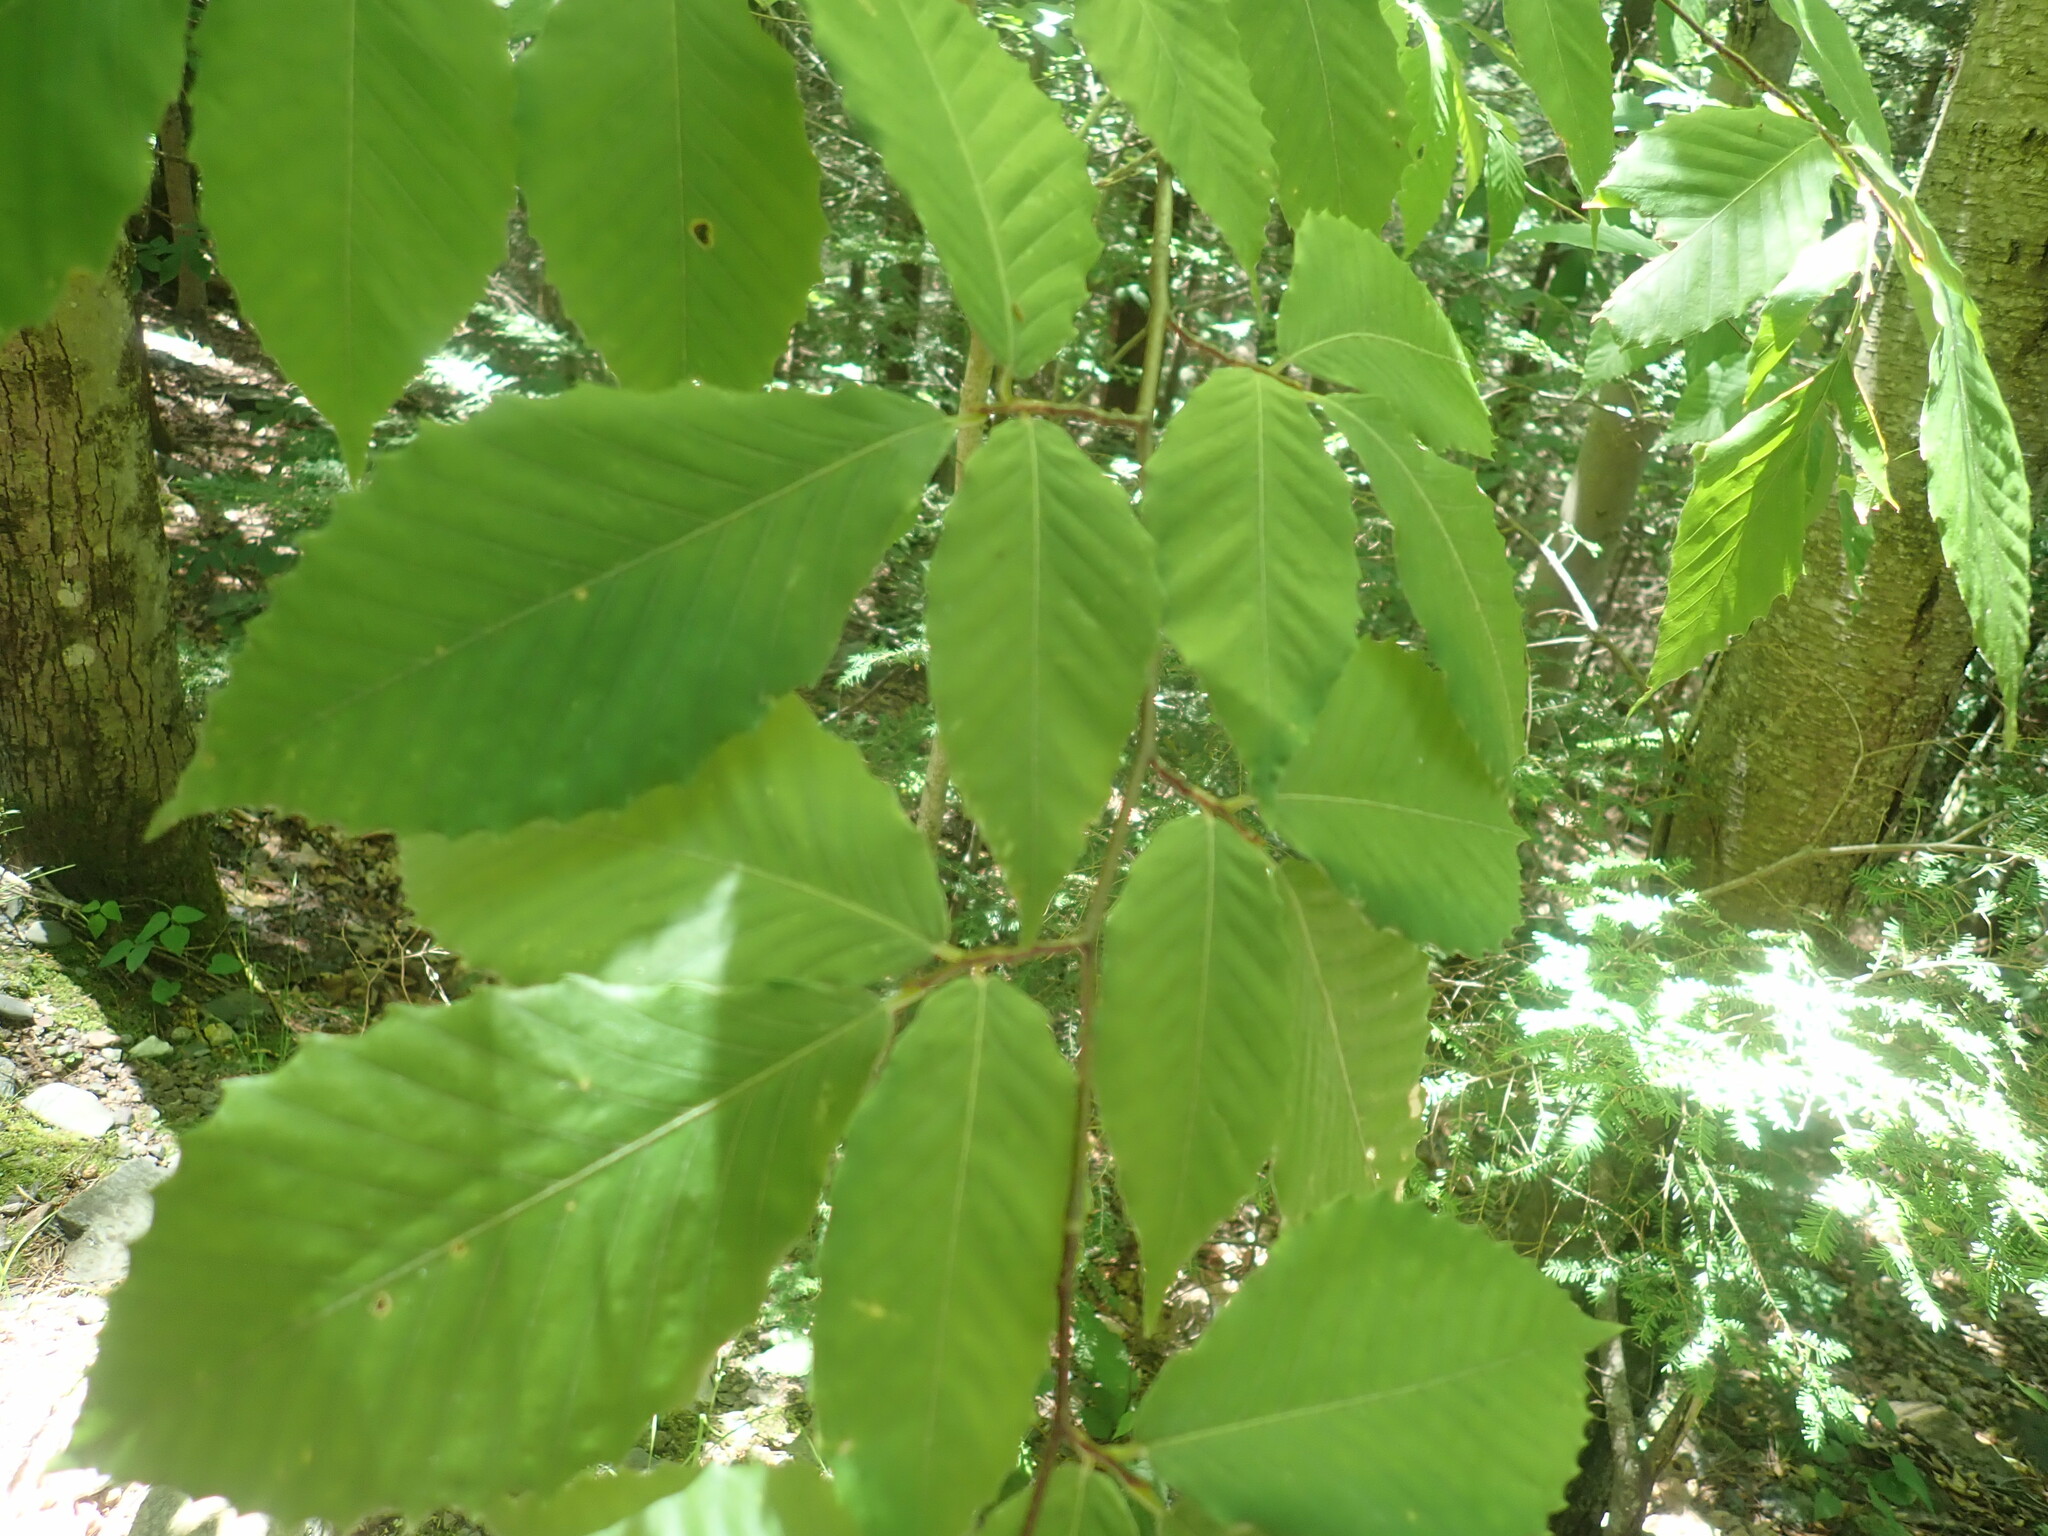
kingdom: Plantae
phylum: Tracheophyta
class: Magnoliopsida
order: Fagales
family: Fagaceae
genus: Fagus
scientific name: Fagus grandifolia
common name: American beech
